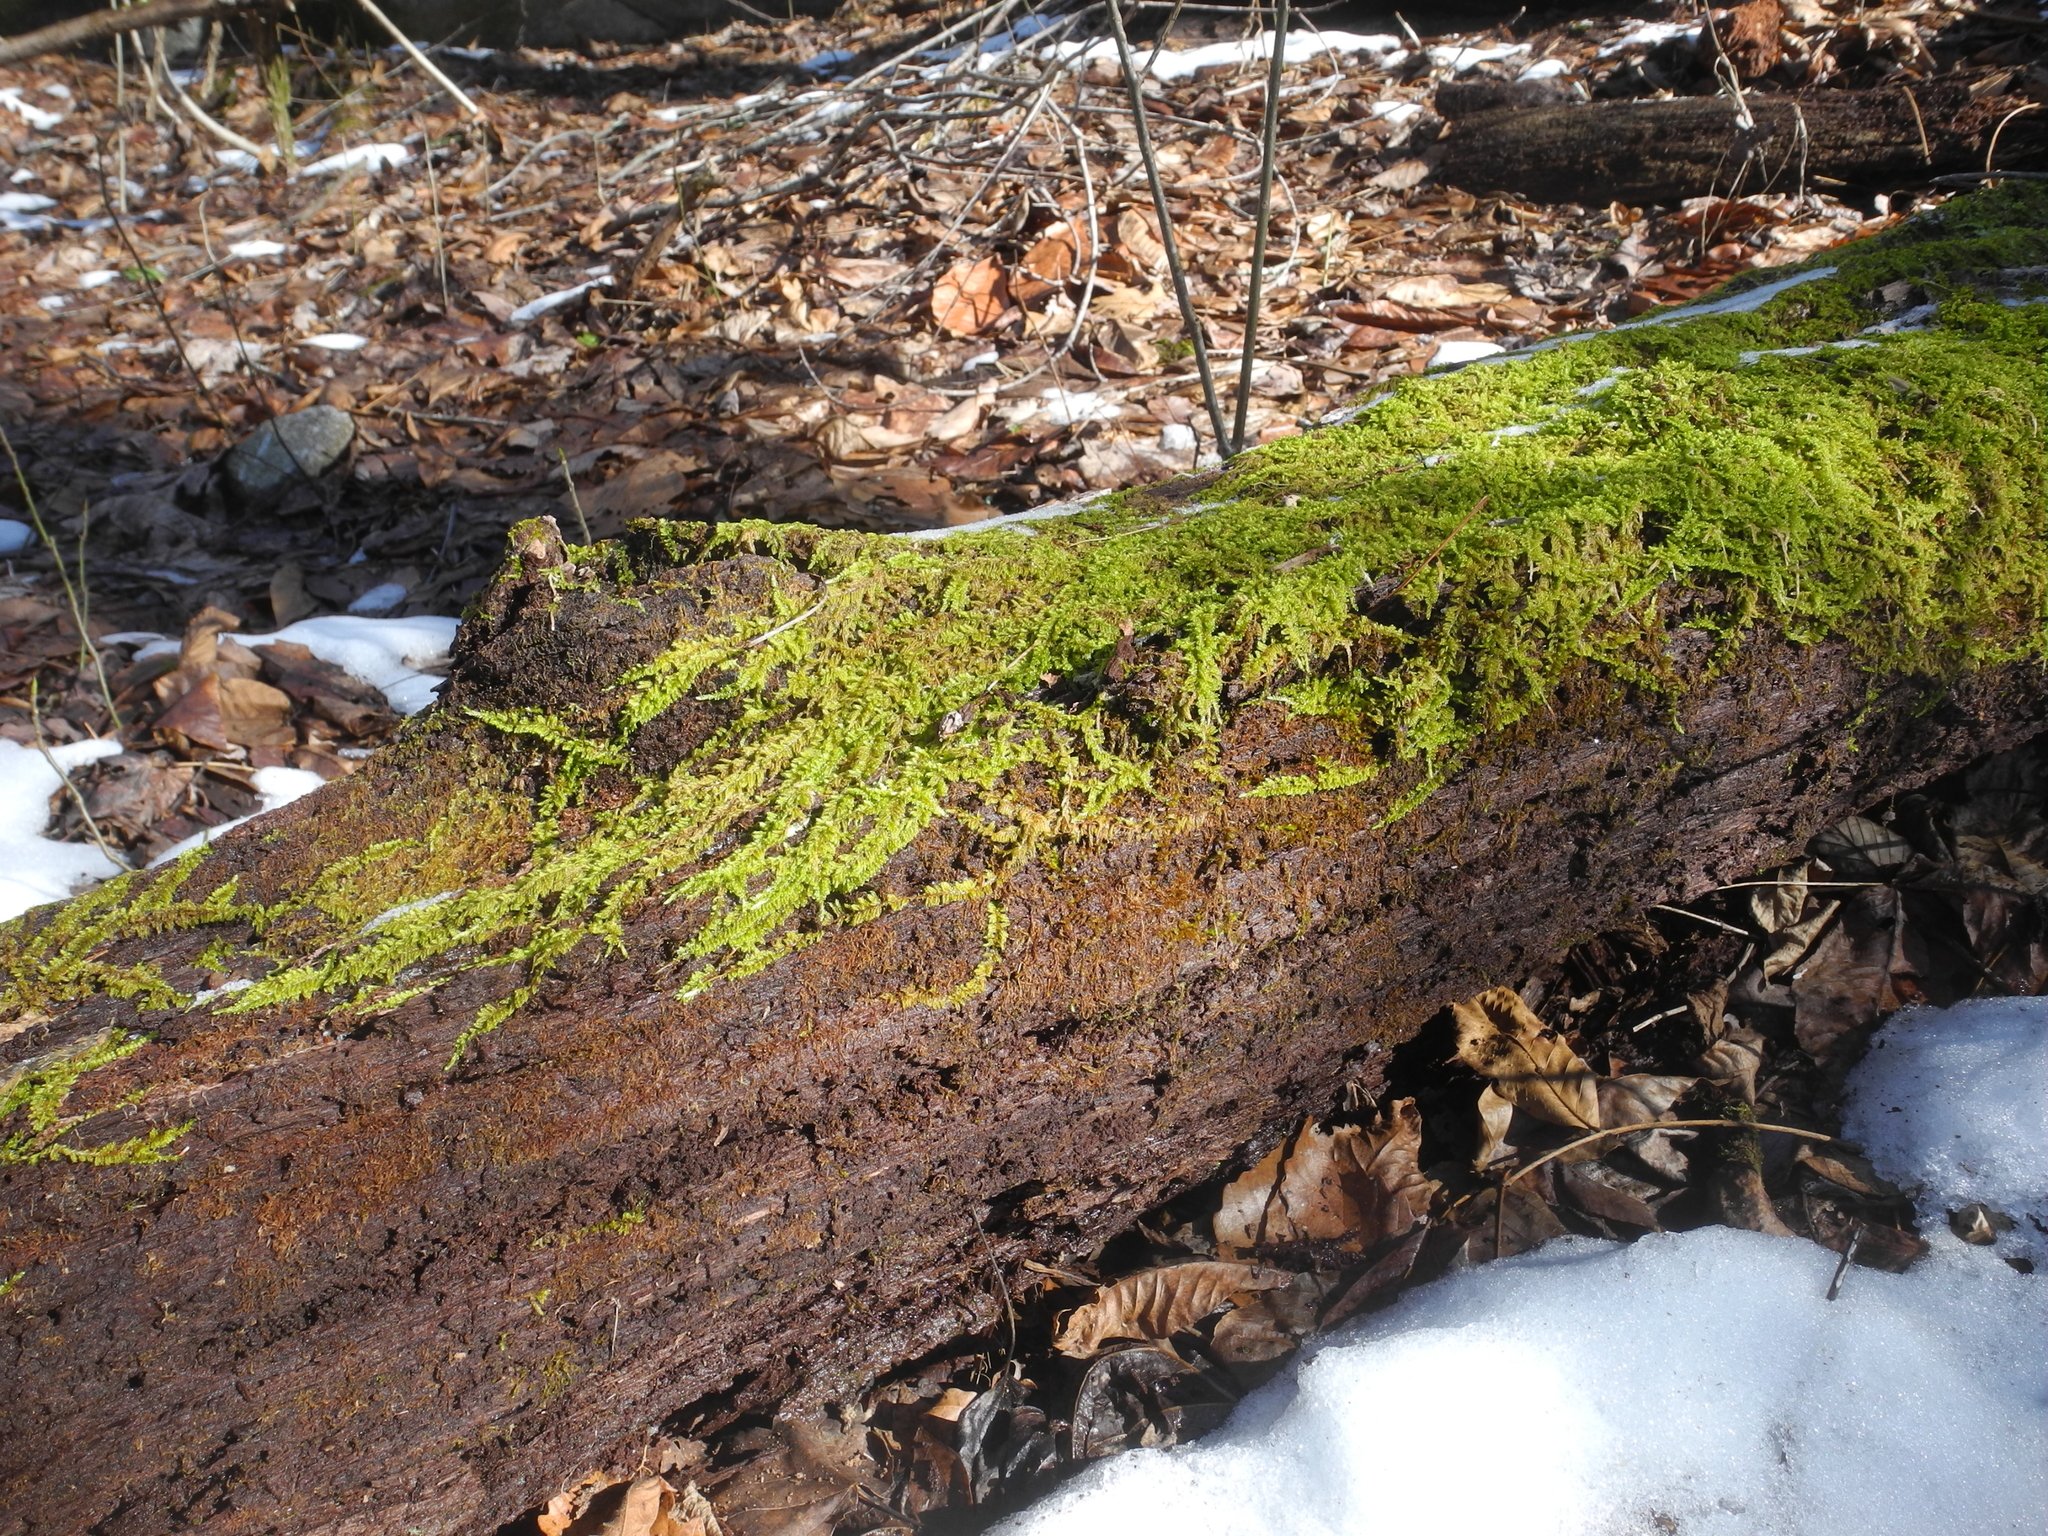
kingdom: Plantae
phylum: Bryophyta
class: Bryopsida
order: Hypnales
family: Callicladiaceae
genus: Callicladium
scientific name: Callicladium imponens
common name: Brocade moss
